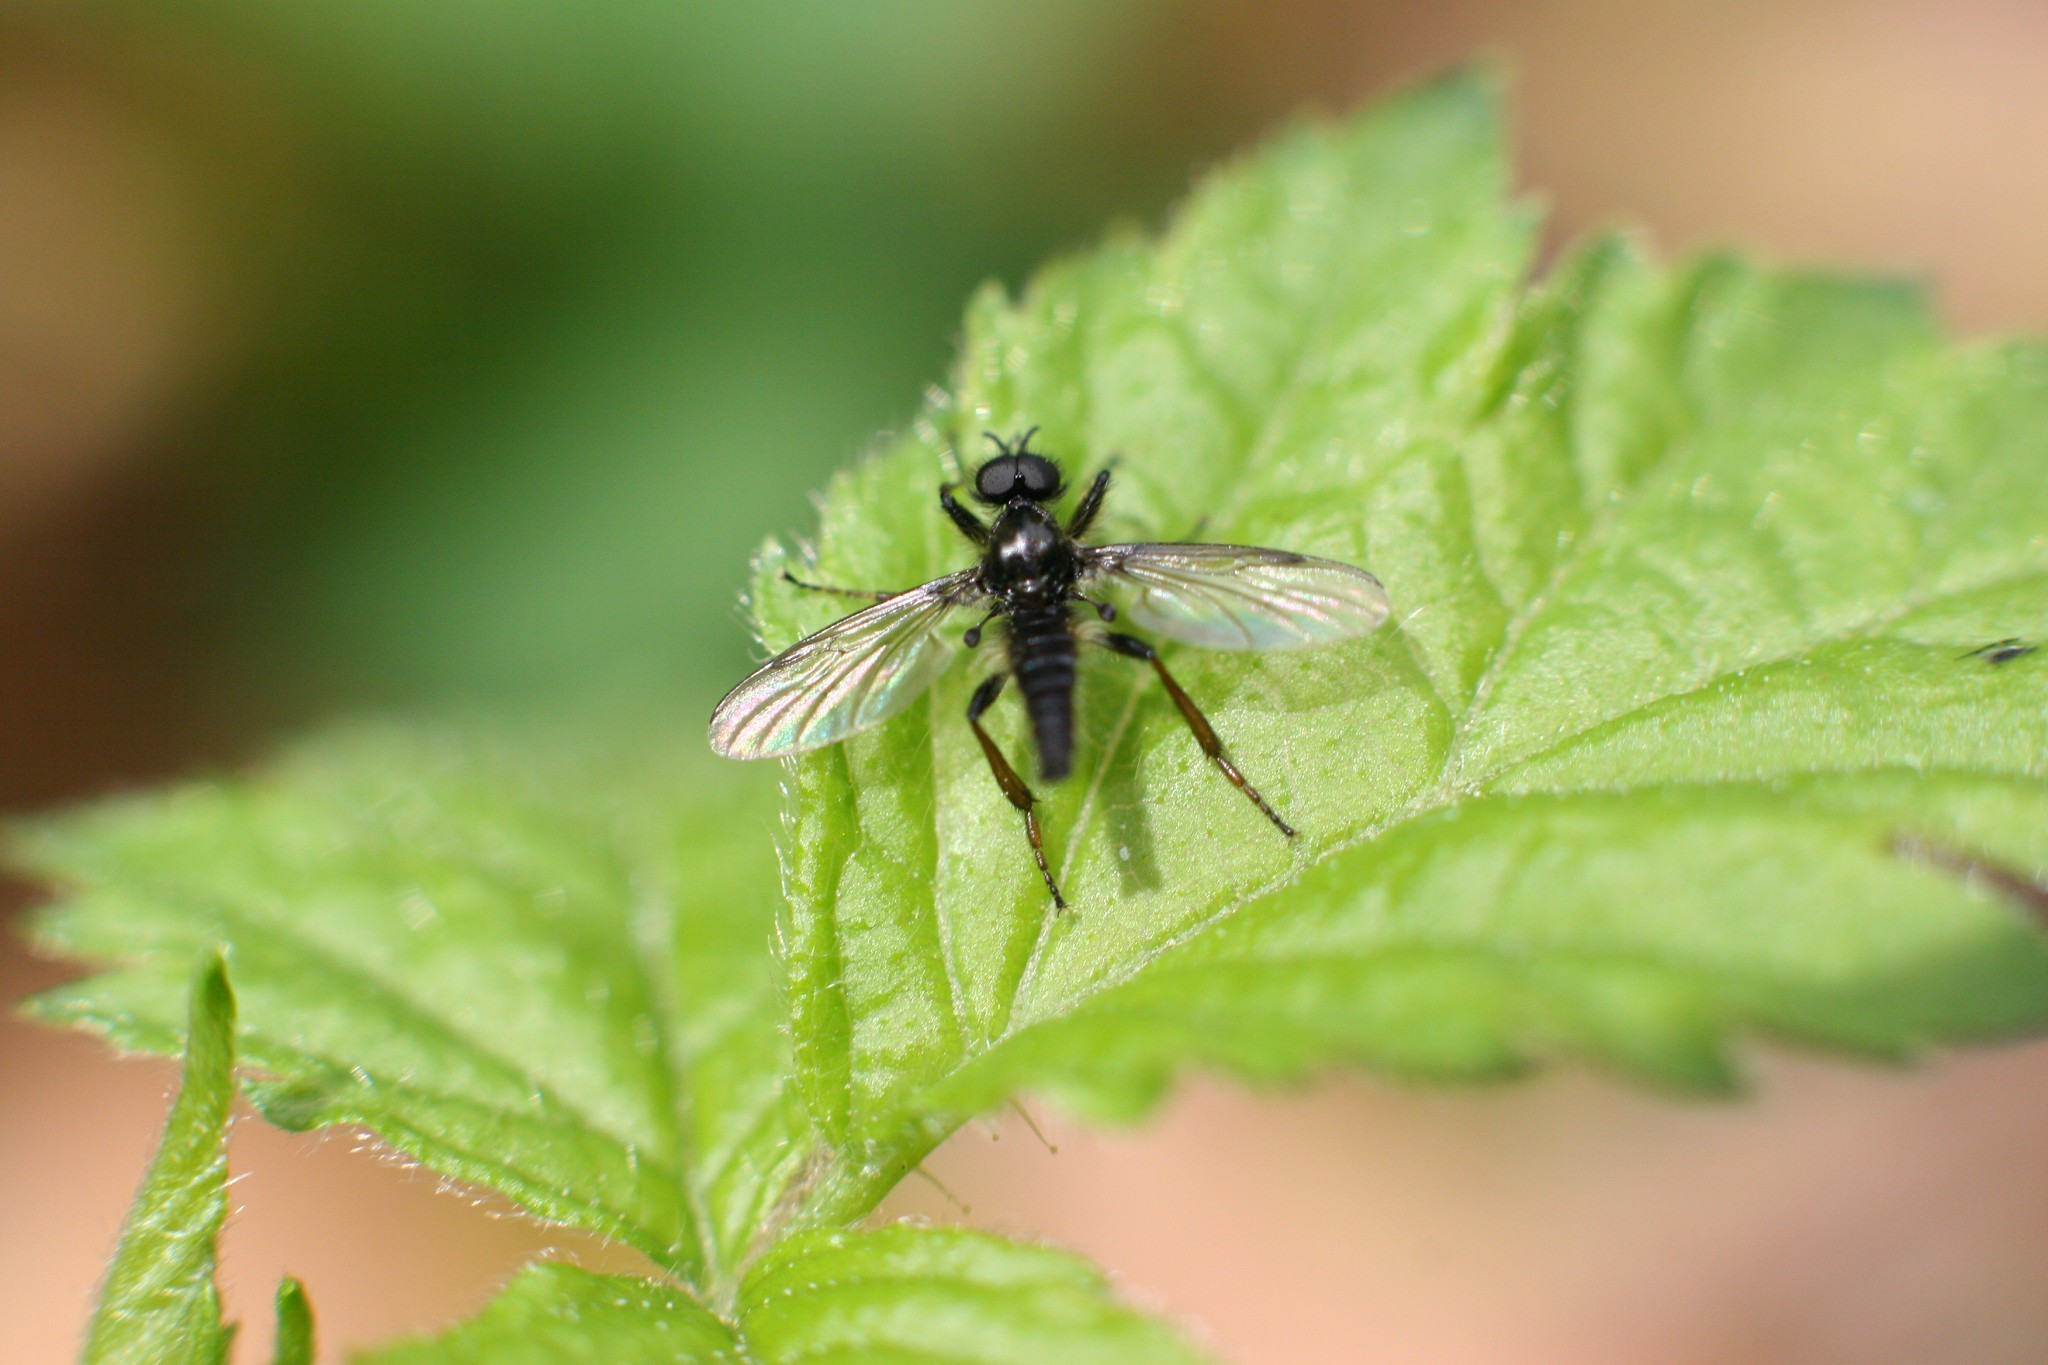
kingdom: Animalia
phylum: Arthropoda
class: Insecta
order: Diptera
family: Bibionidae
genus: Bibio
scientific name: Bibio lanigerus
